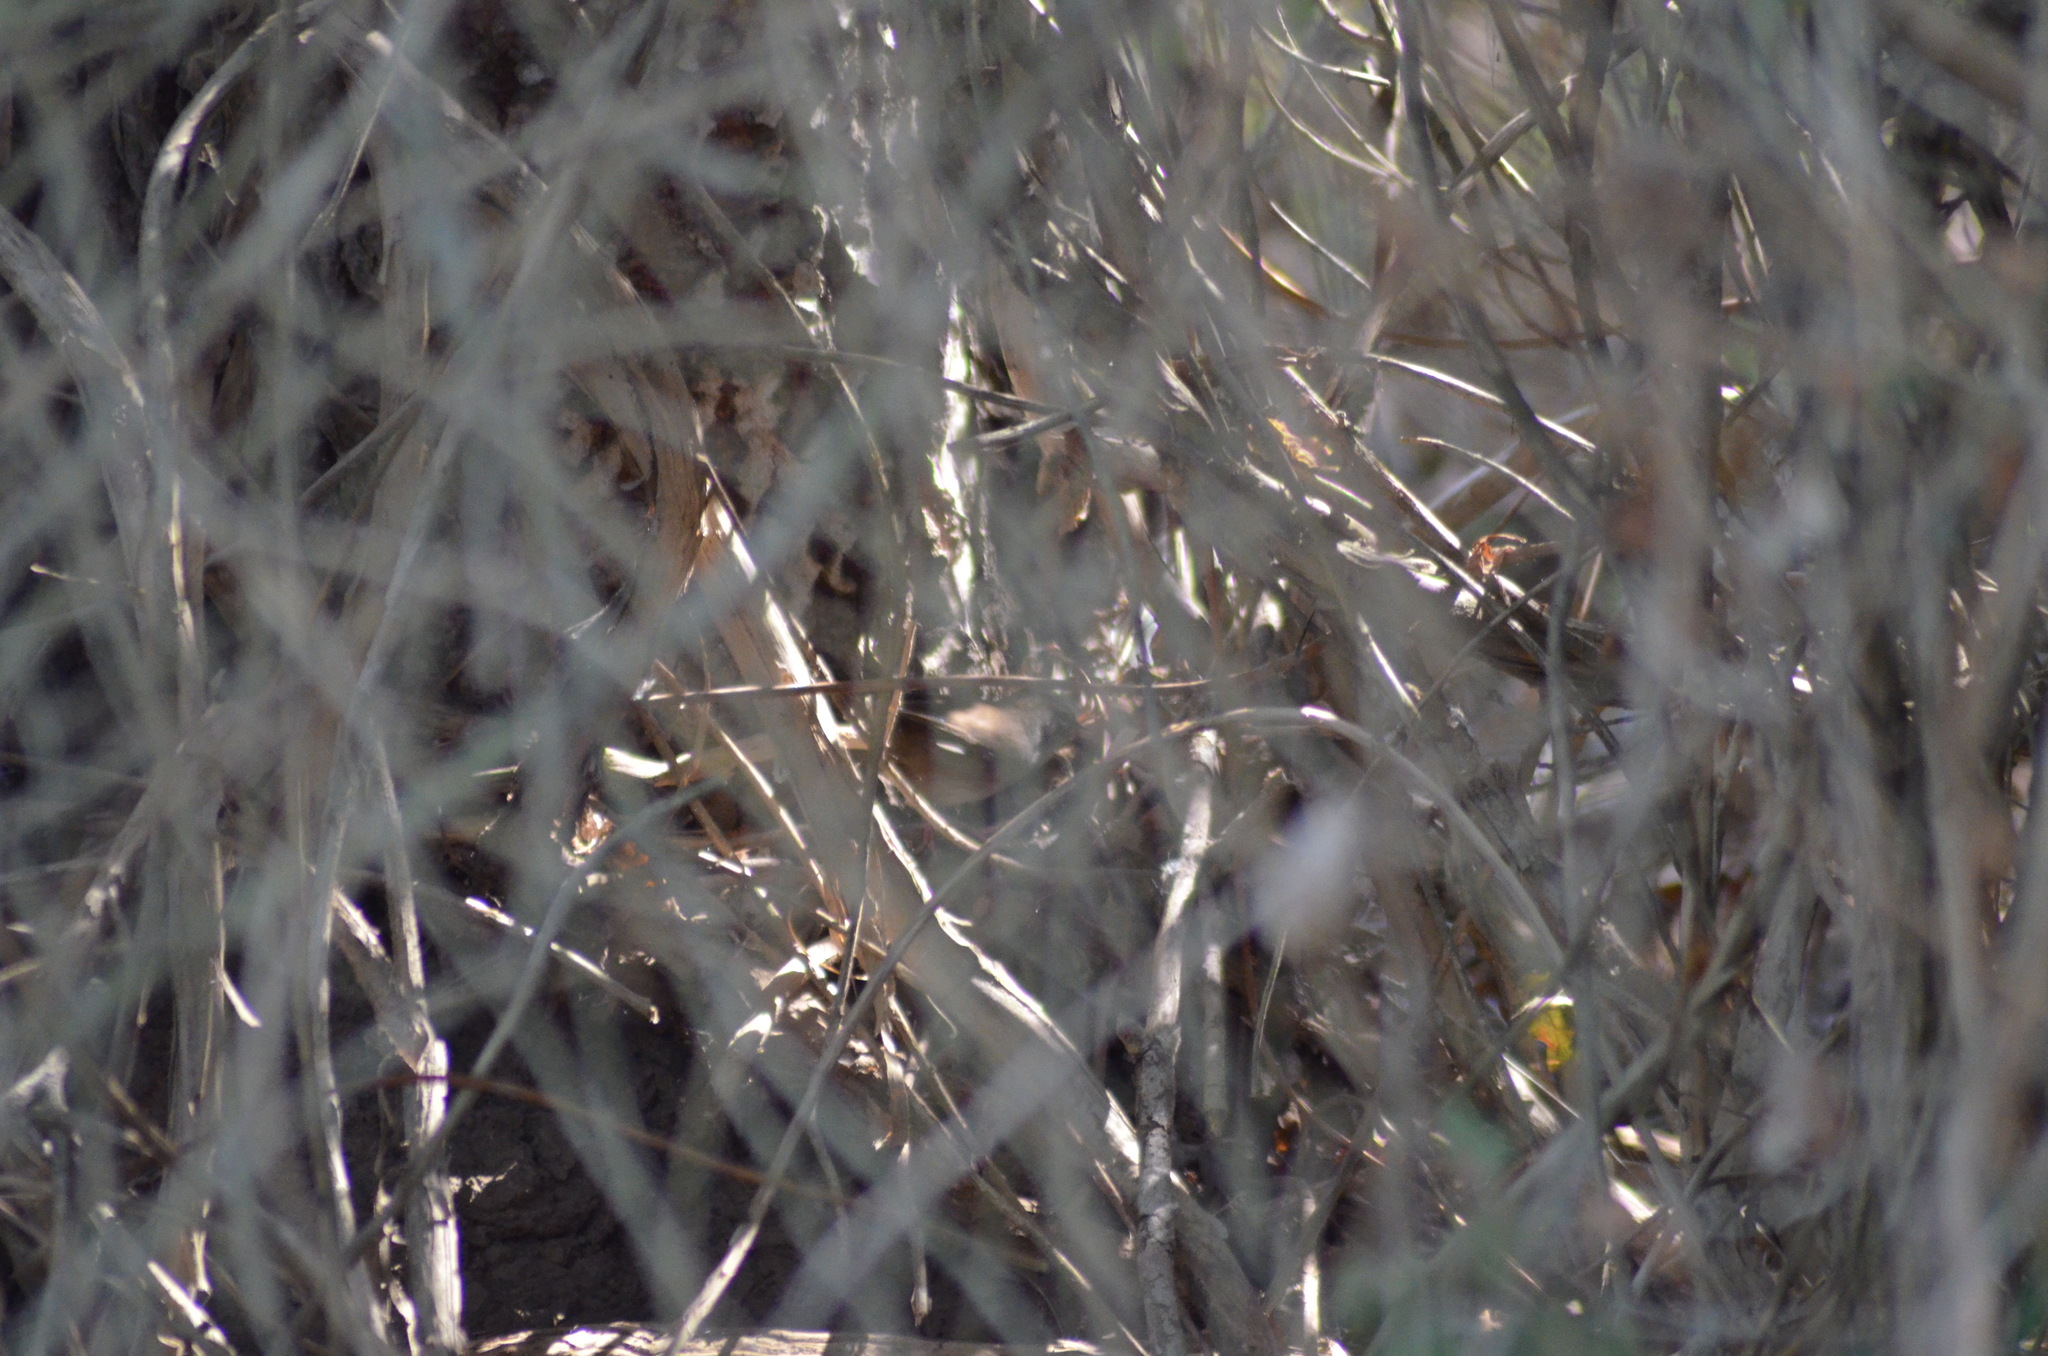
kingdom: Animalia
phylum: Chordata
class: Aves
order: Passeriformes
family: Cettiidae
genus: Cettia
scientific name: Cettia cetti
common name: Cetti's warbler
